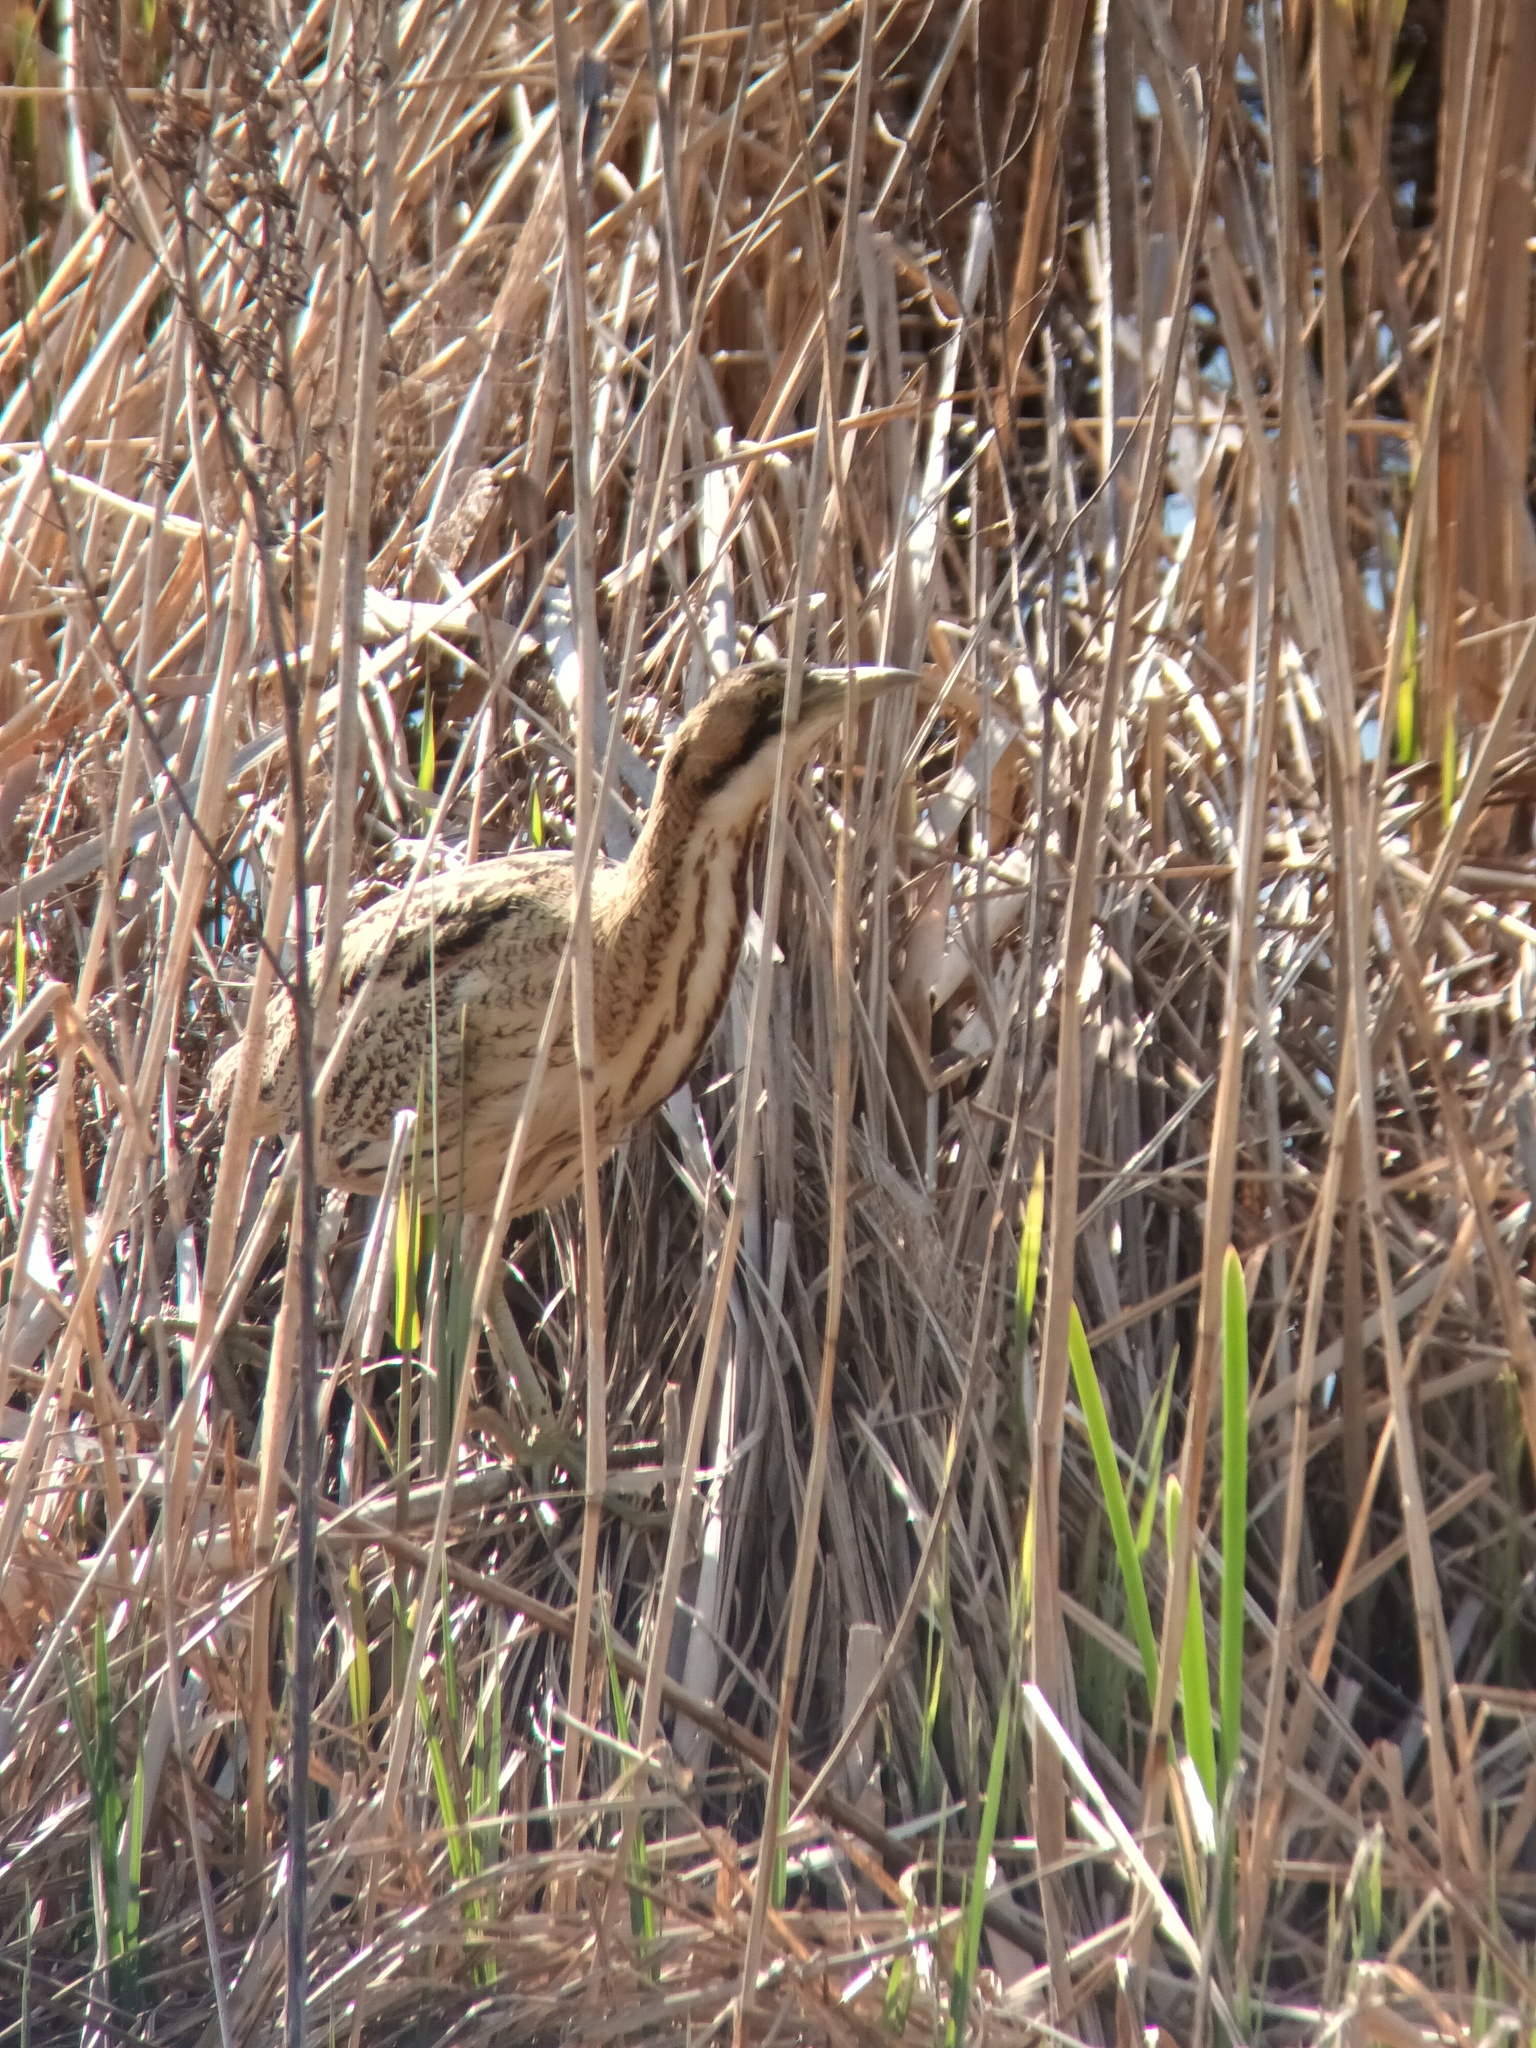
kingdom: Animalia
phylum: Chordata
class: Aves
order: Pelecaniformes
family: Ardeidae
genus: Botaurus
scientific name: Botaurus stellaris
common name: Eurasian bittern
